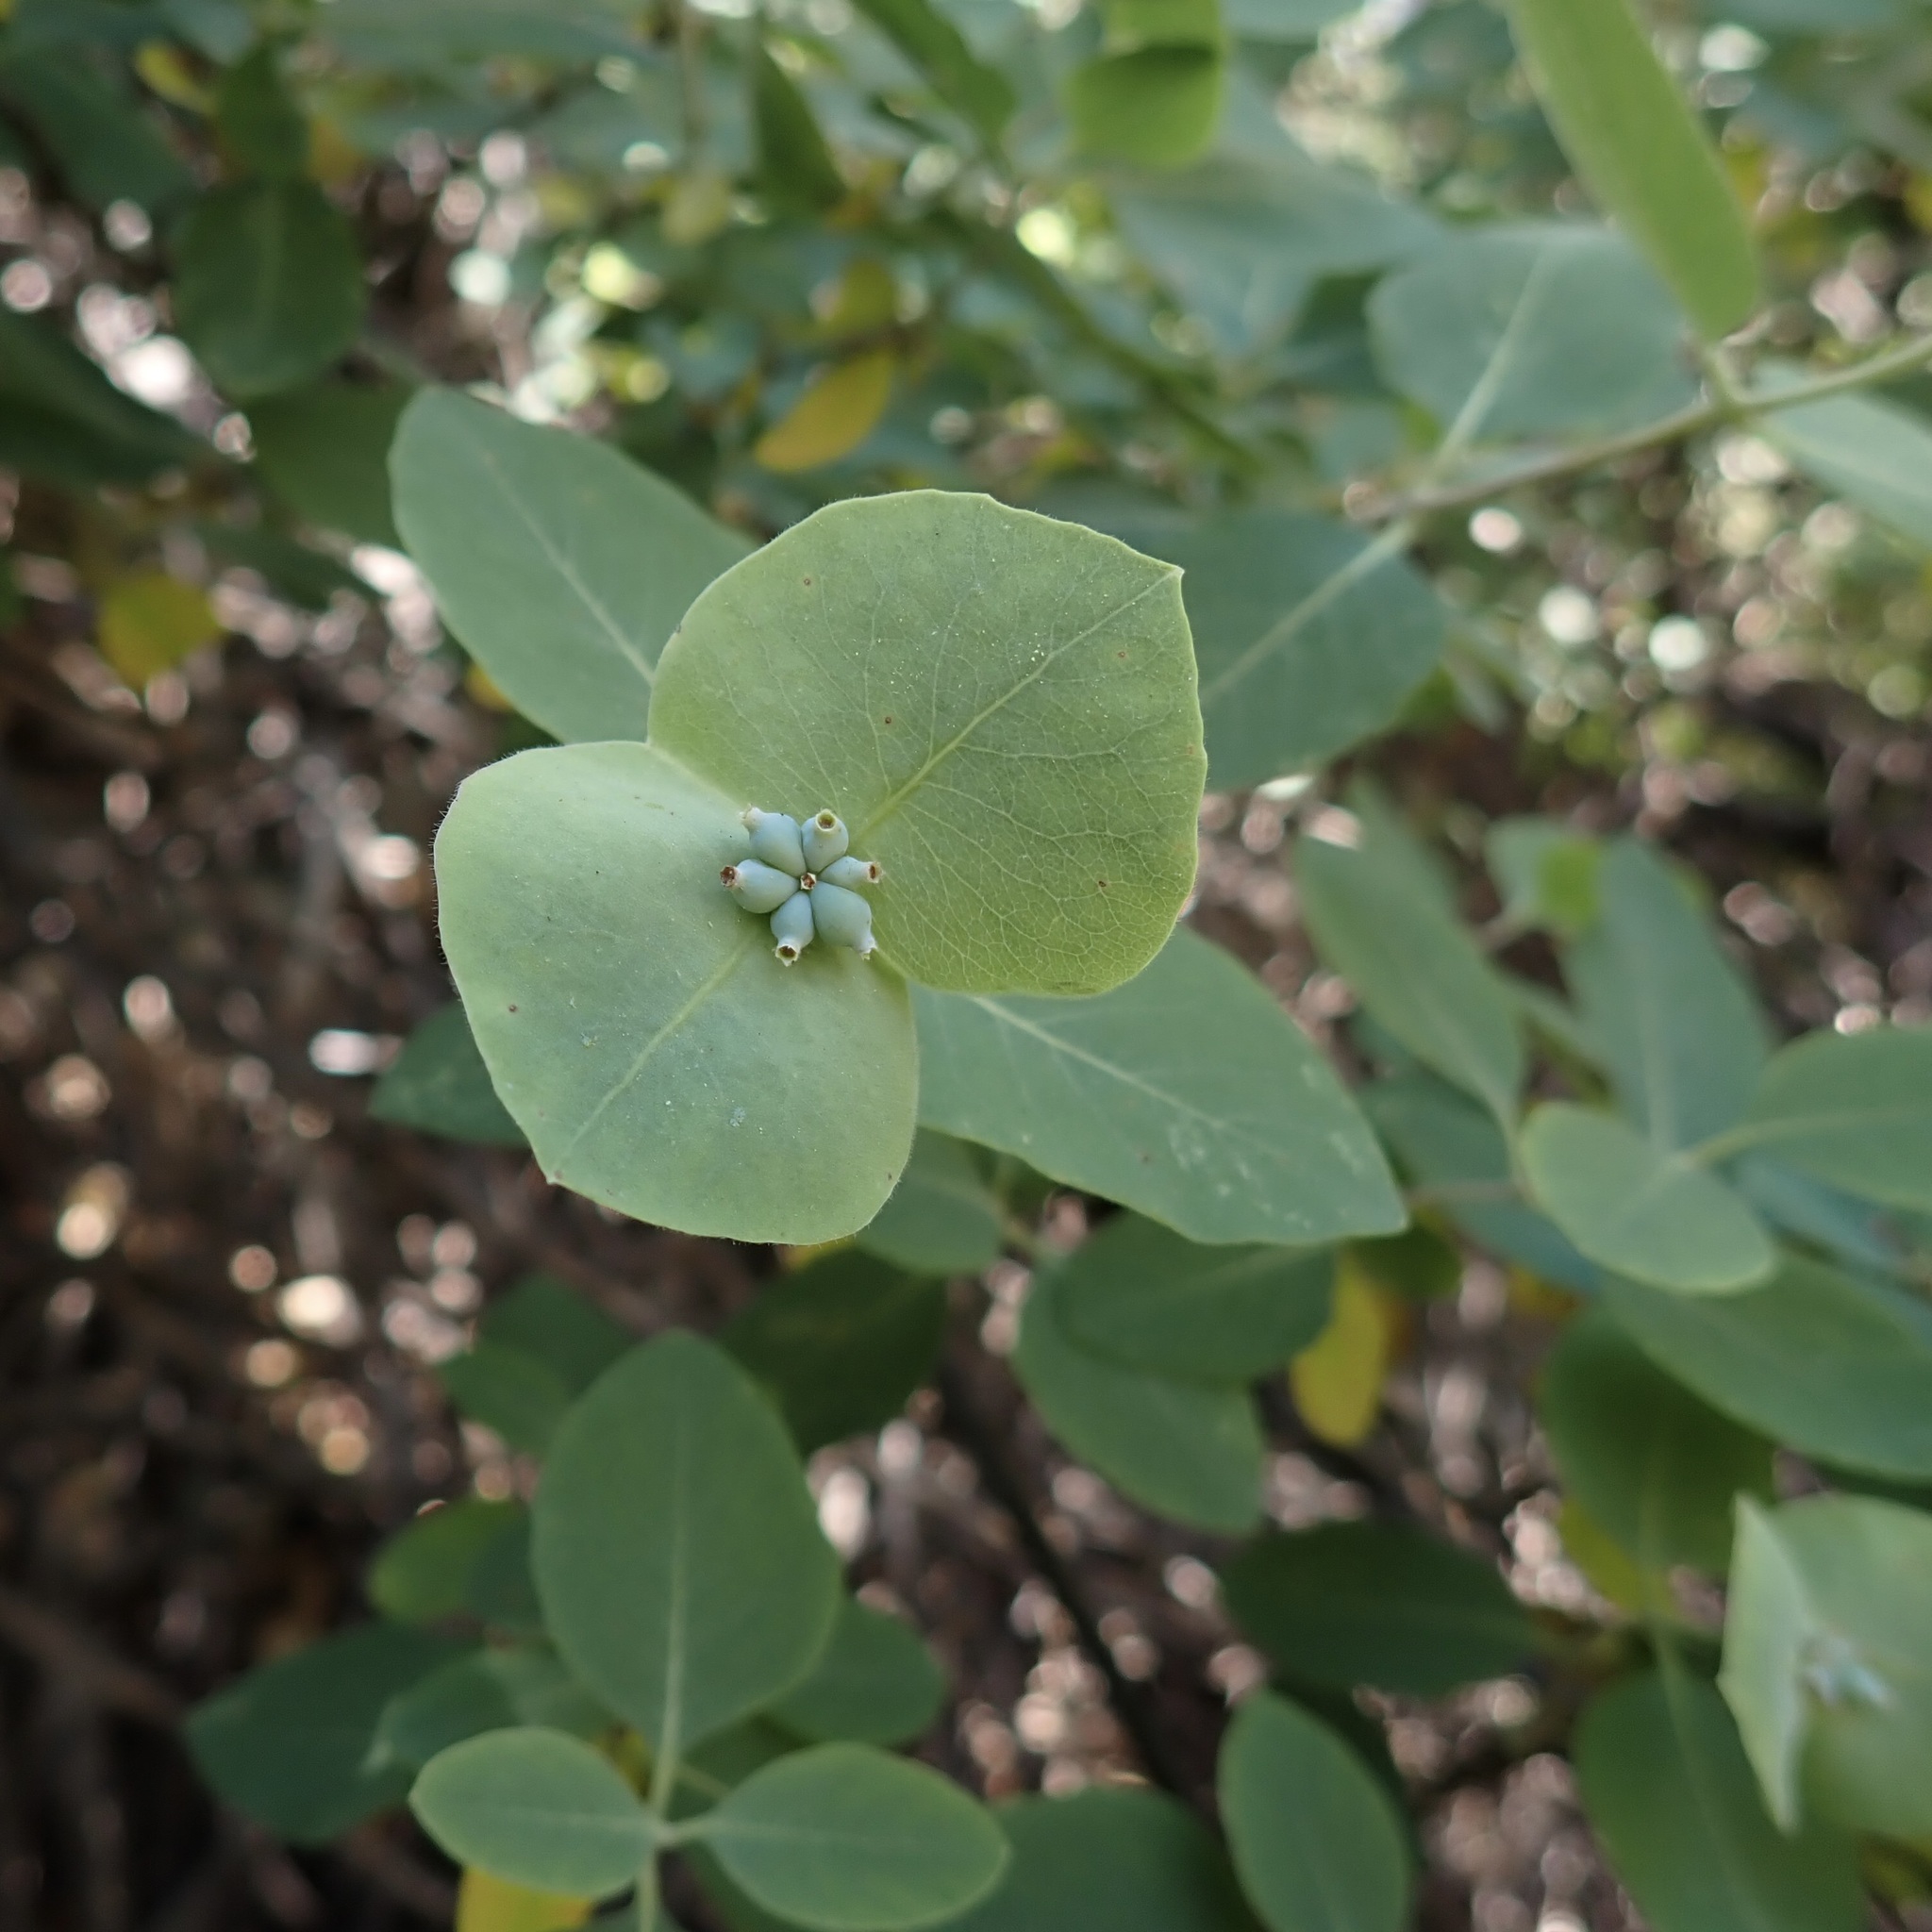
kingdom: Plantae
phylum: Tracheophyta
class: Magnoliopsida
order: Dipsacales
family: Caprifoliaceae
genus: Lonicera
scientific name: Lonicera albiflora
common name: White honeysuckle
